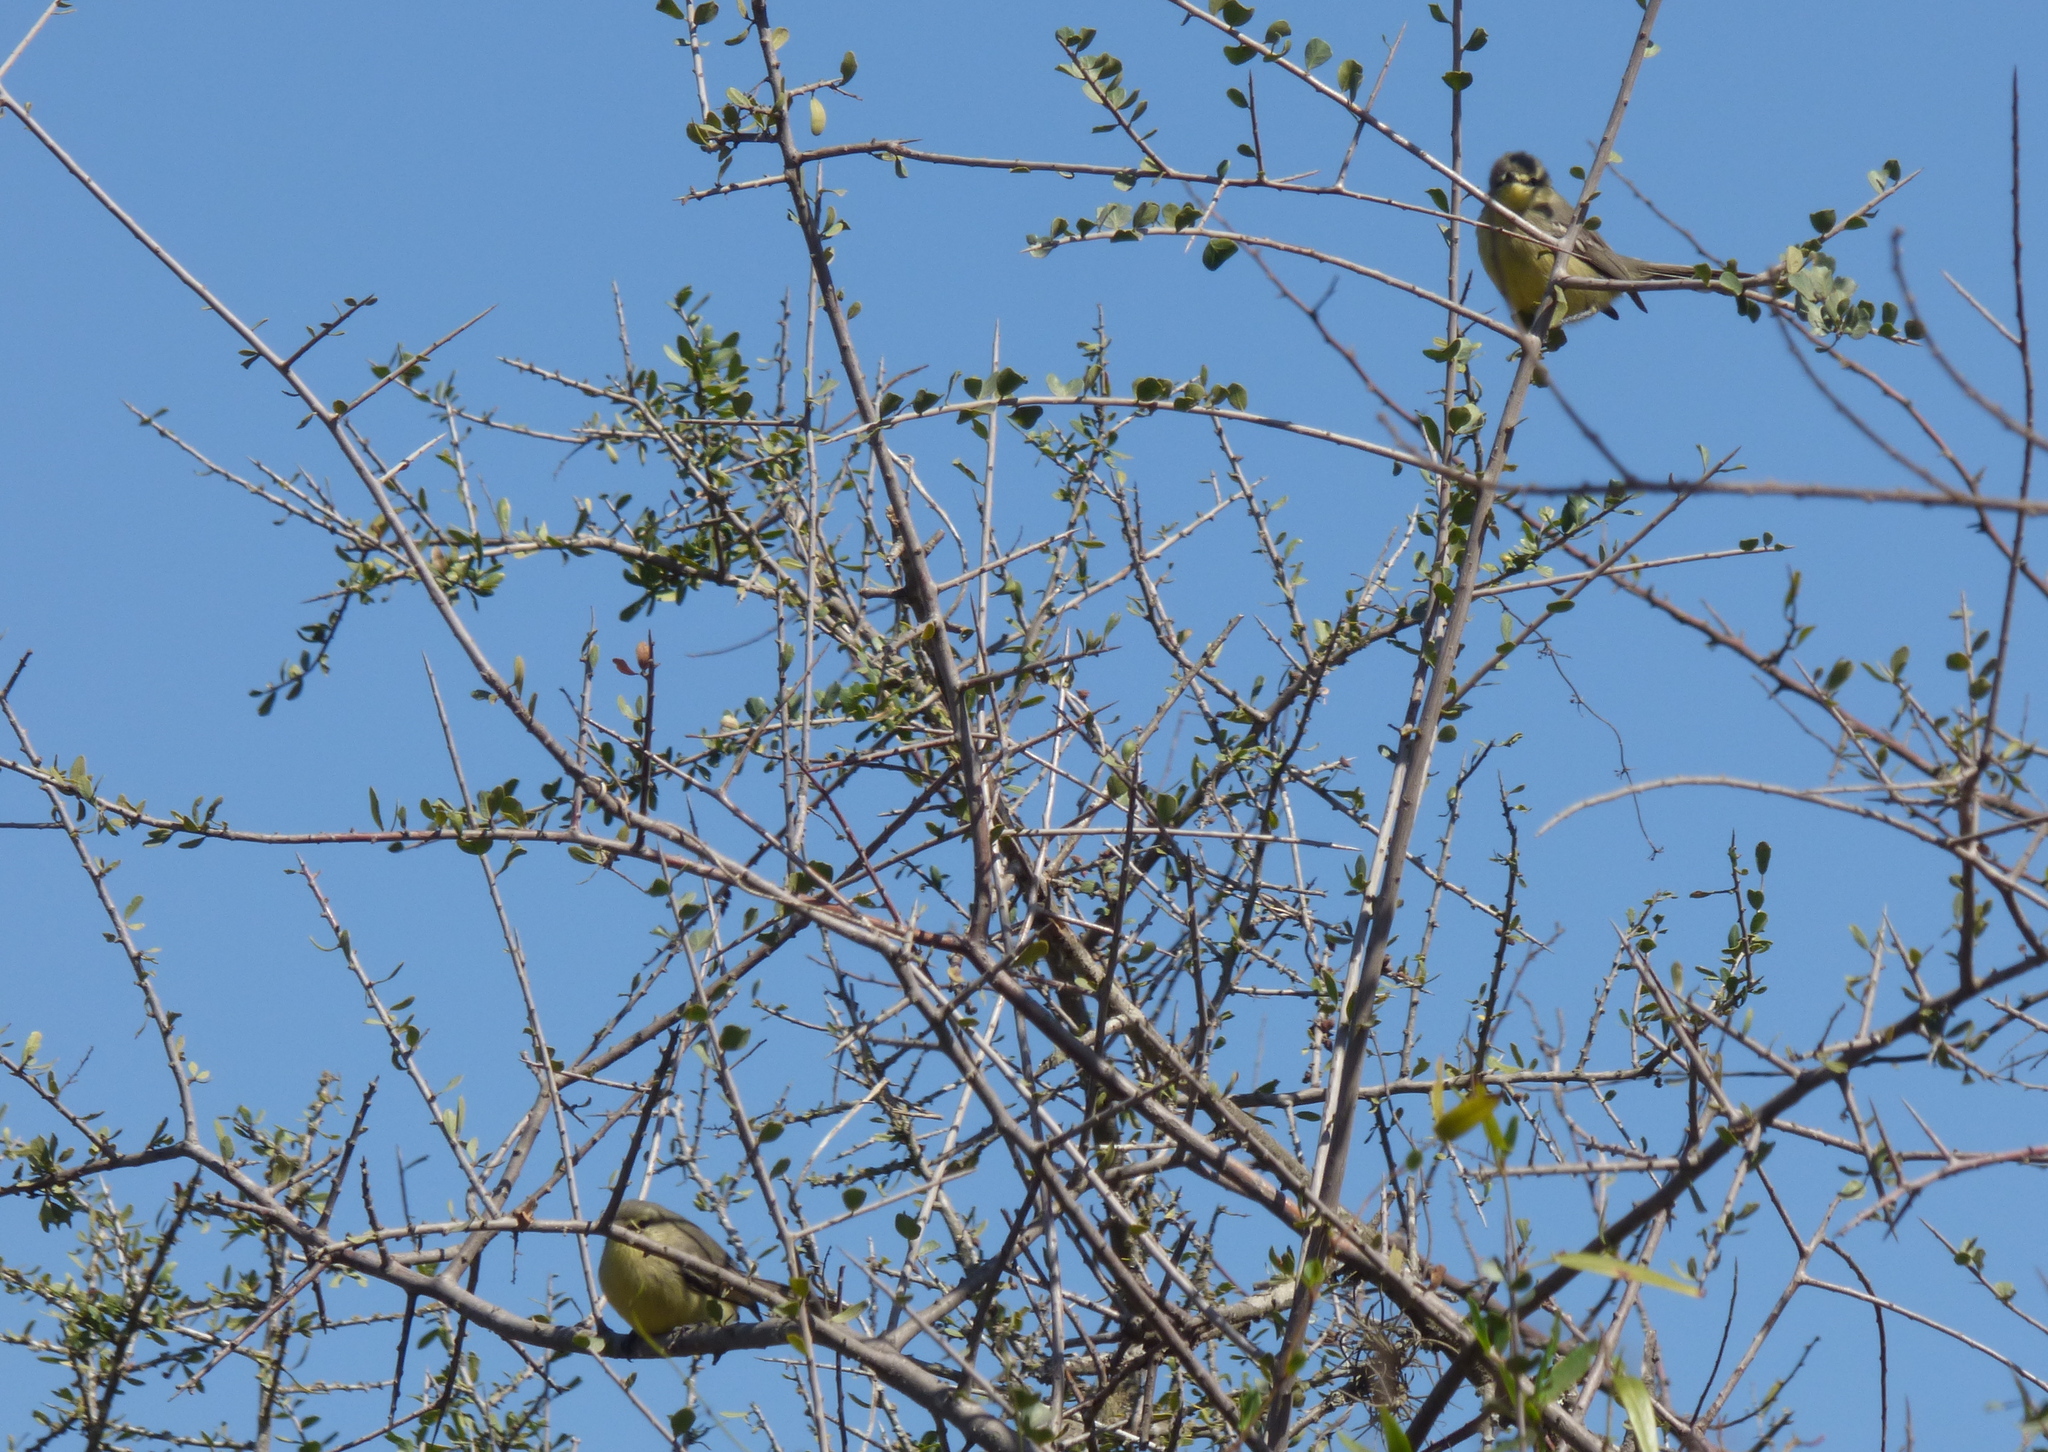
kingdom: Animalia
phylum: Chordata
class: Aves
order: Passeriformes
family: Tyrannidae
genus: Stigmatura
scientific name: Stigmatura budytoides
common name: Greater wagtail-tyrant
